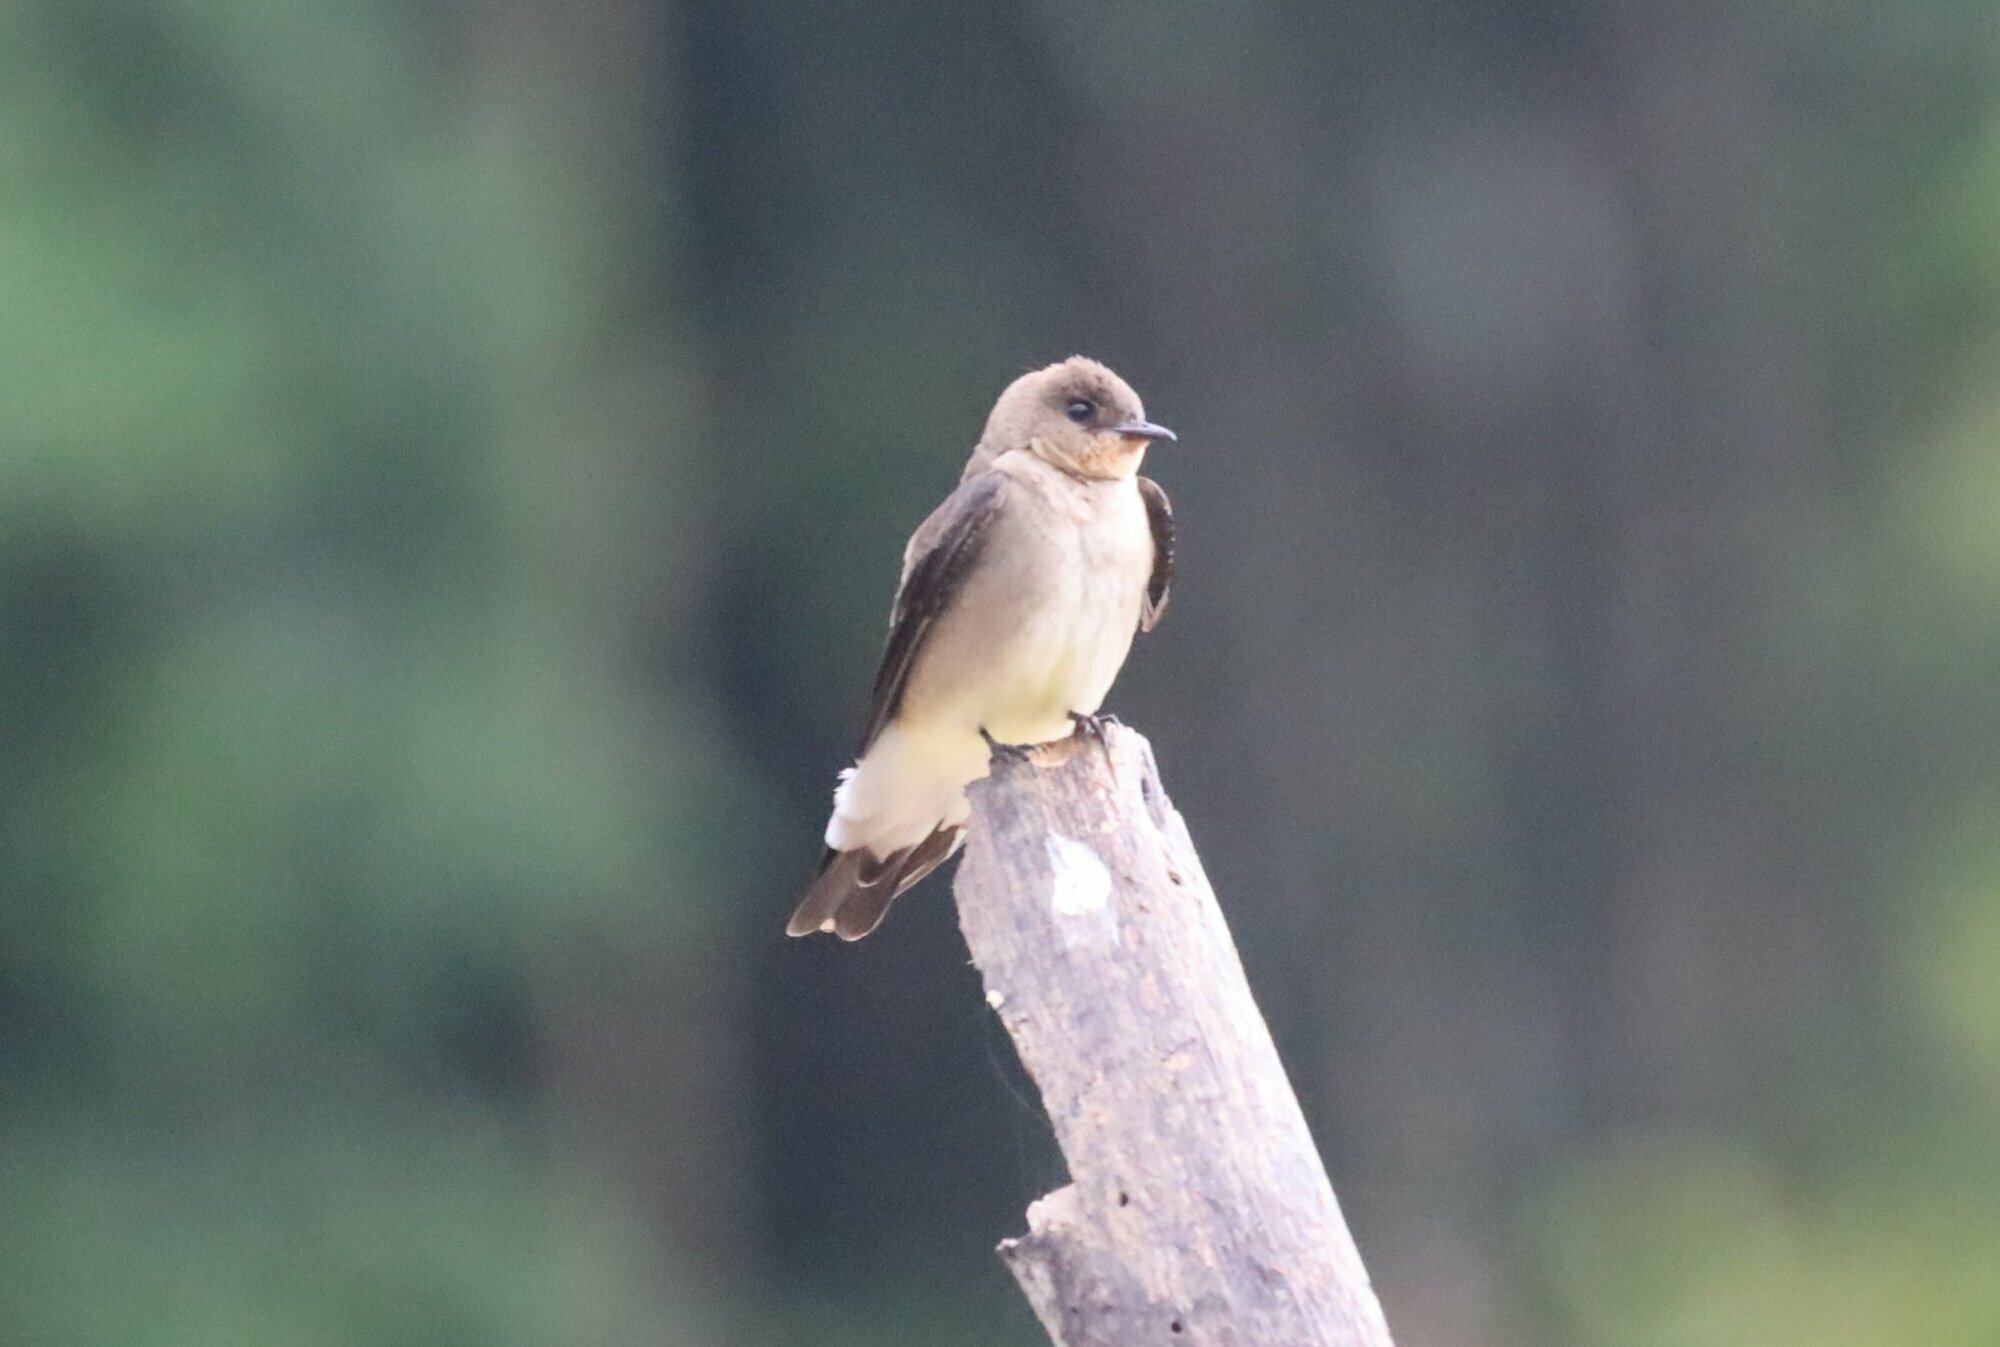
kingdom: Animalia
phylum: Chordata
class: Aves
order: Passeriformes
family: Hirundinidae
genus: Stelgidopteryx
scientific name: Stelgidopteryx ruficollis
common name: Southern rough-winged swallow
